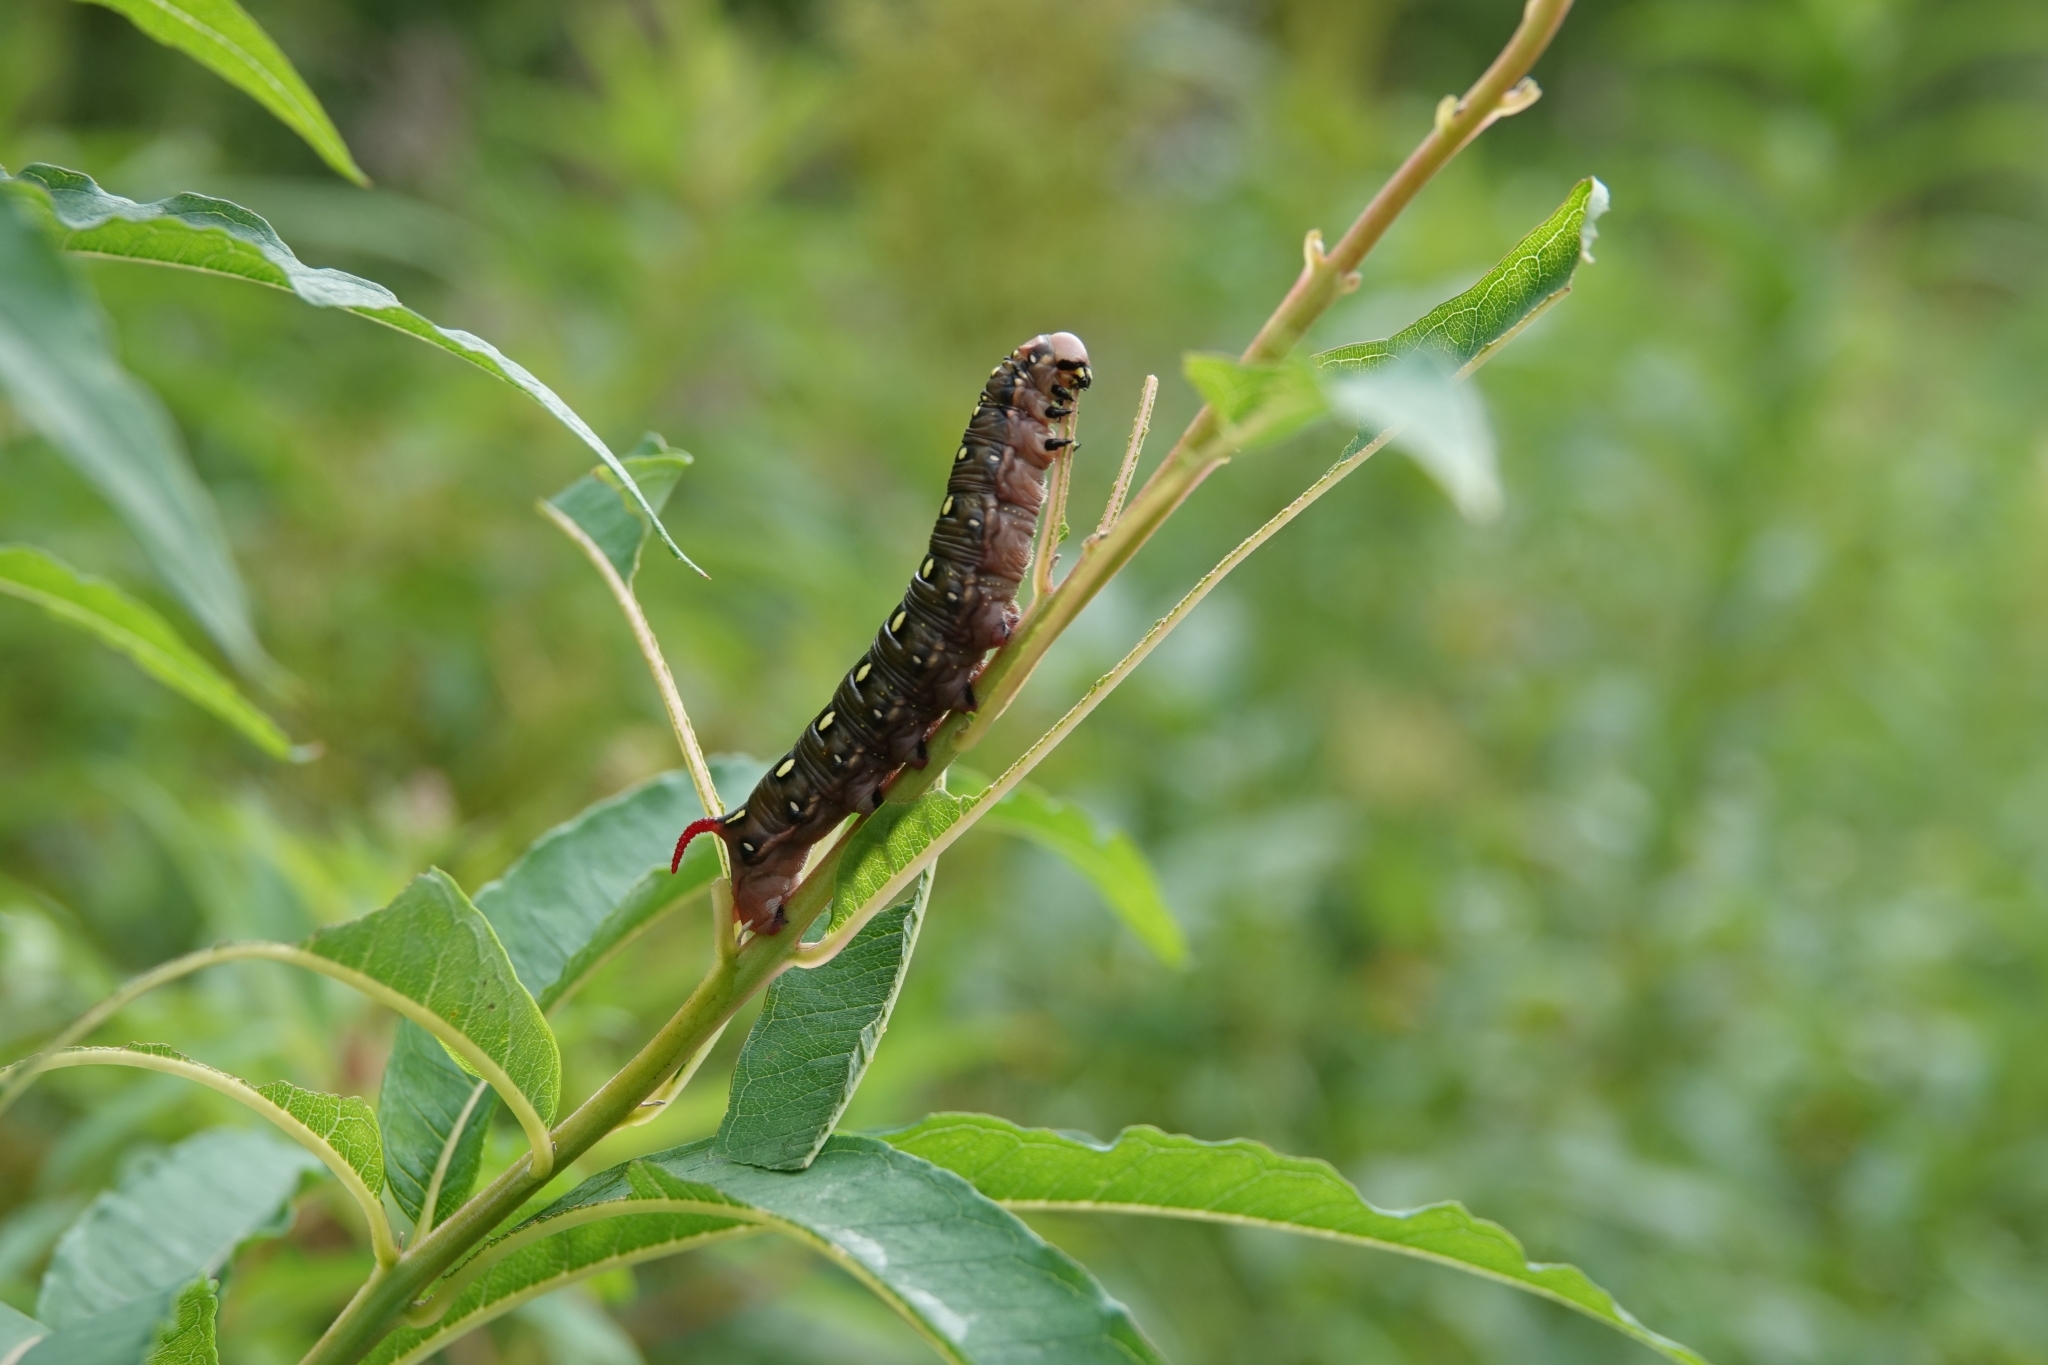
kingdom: Animalia
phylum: Arthropoda
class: Insecta
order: Lepidoptera
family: Sphingidae
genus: Hyles
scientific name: Hyles gallii
